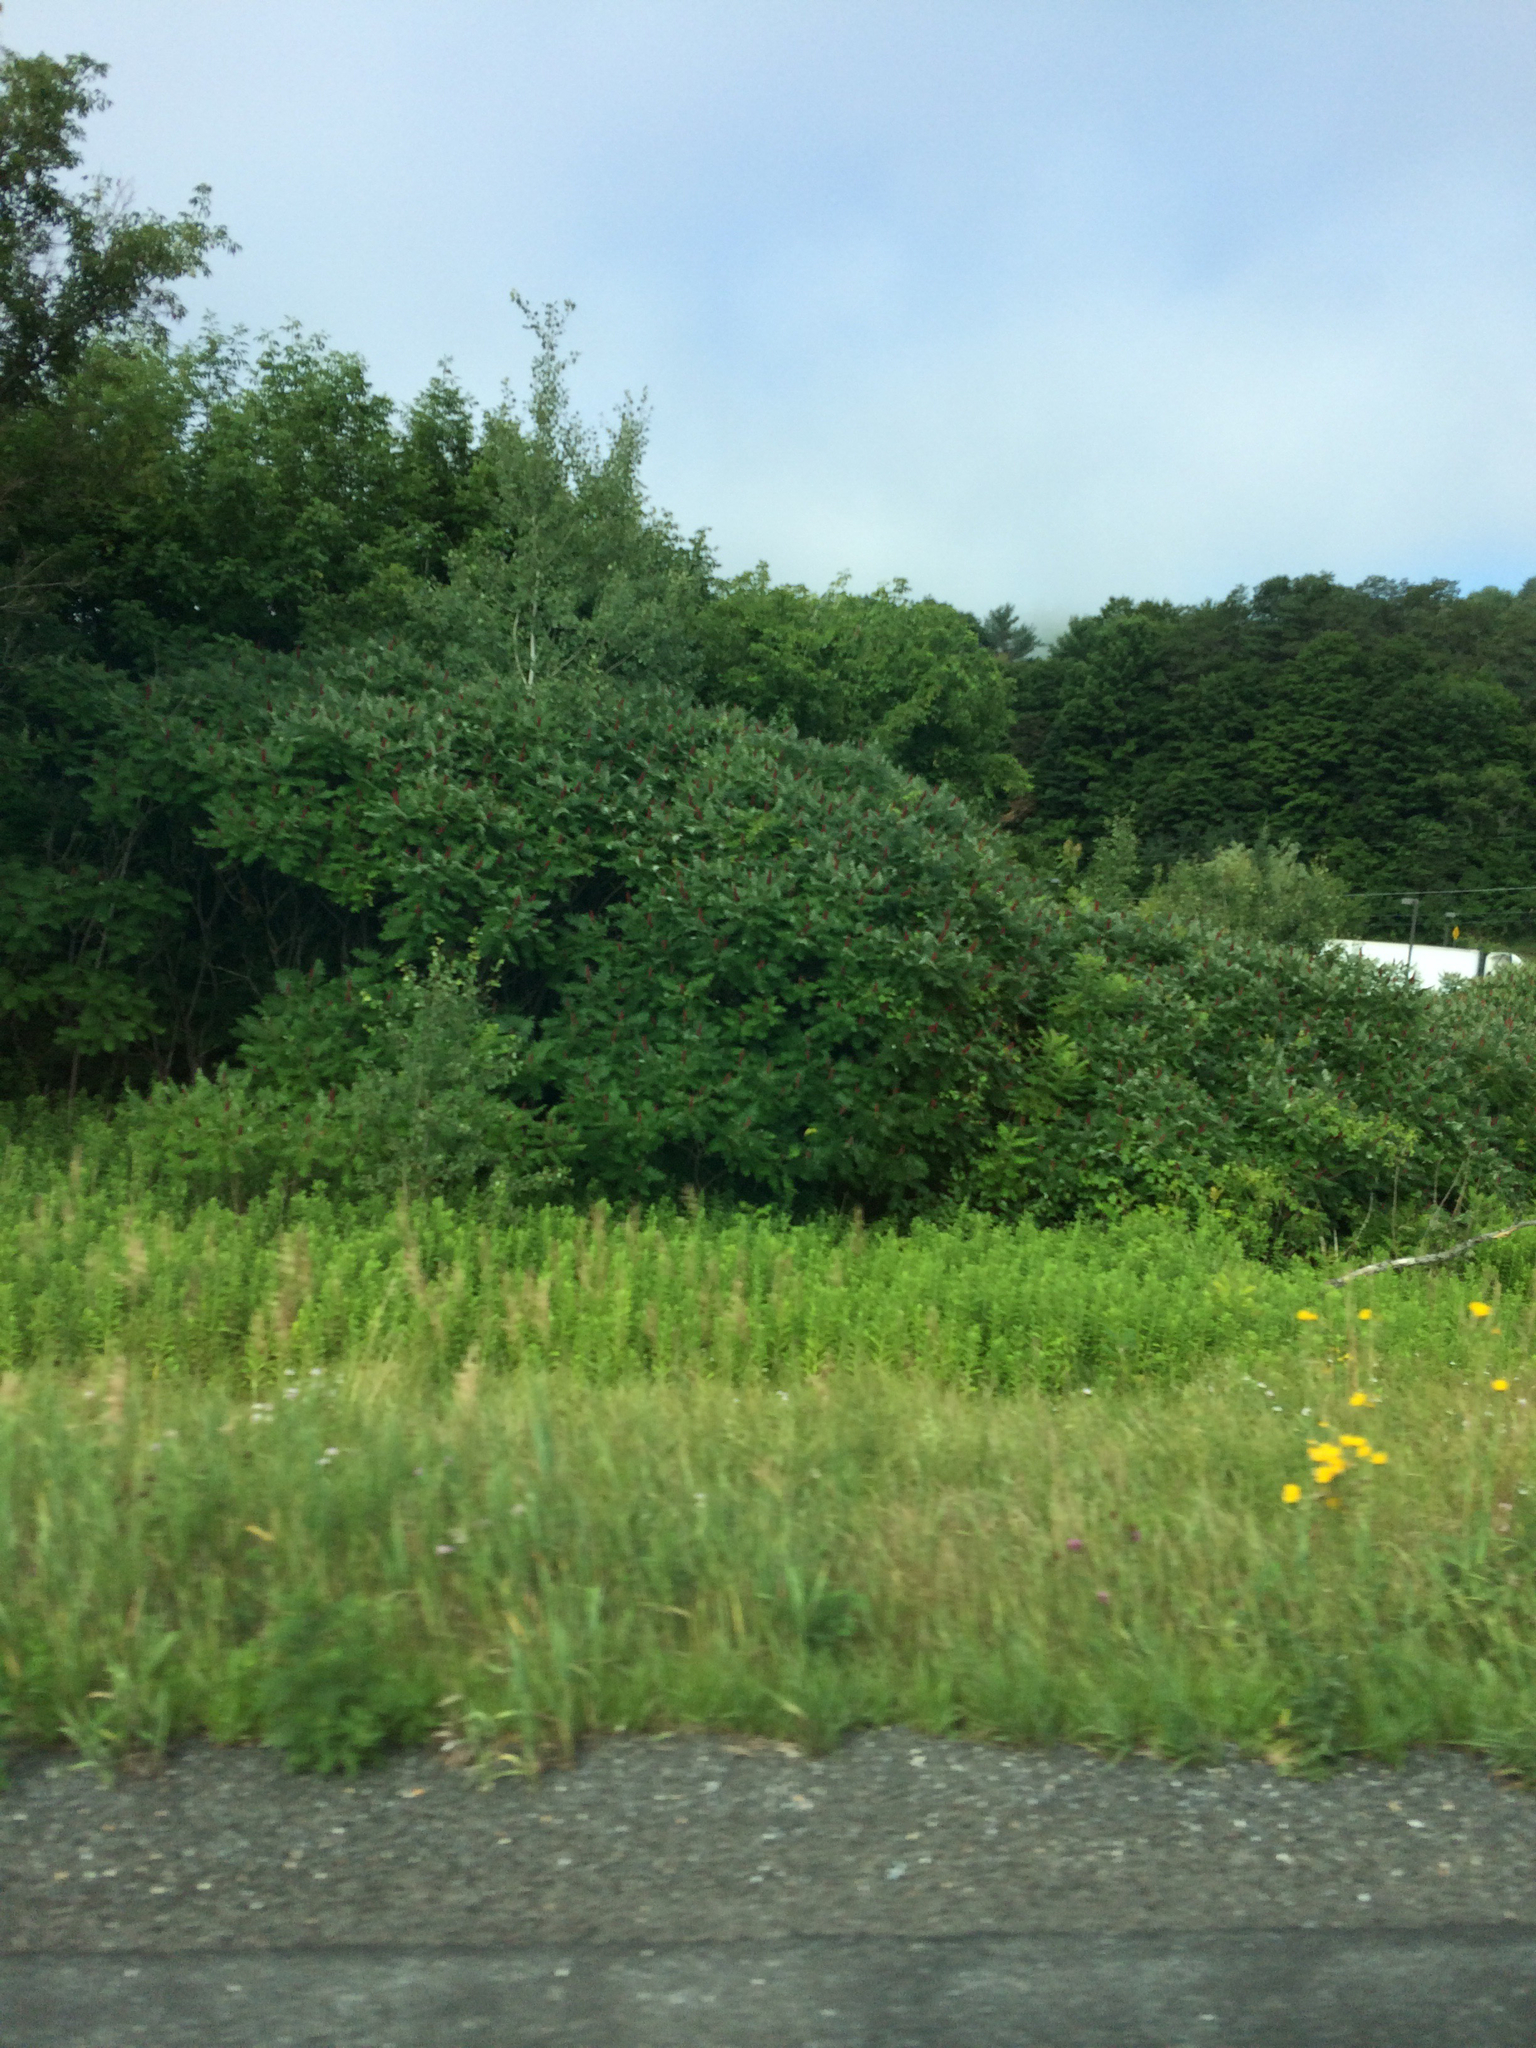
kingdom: Plantae
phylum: Tracheophyta
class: Magnoliopsida
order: Sapindales
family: Anacardiaceae
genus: Rhus
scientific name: Rhus typhina
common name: Staghorn sumac
